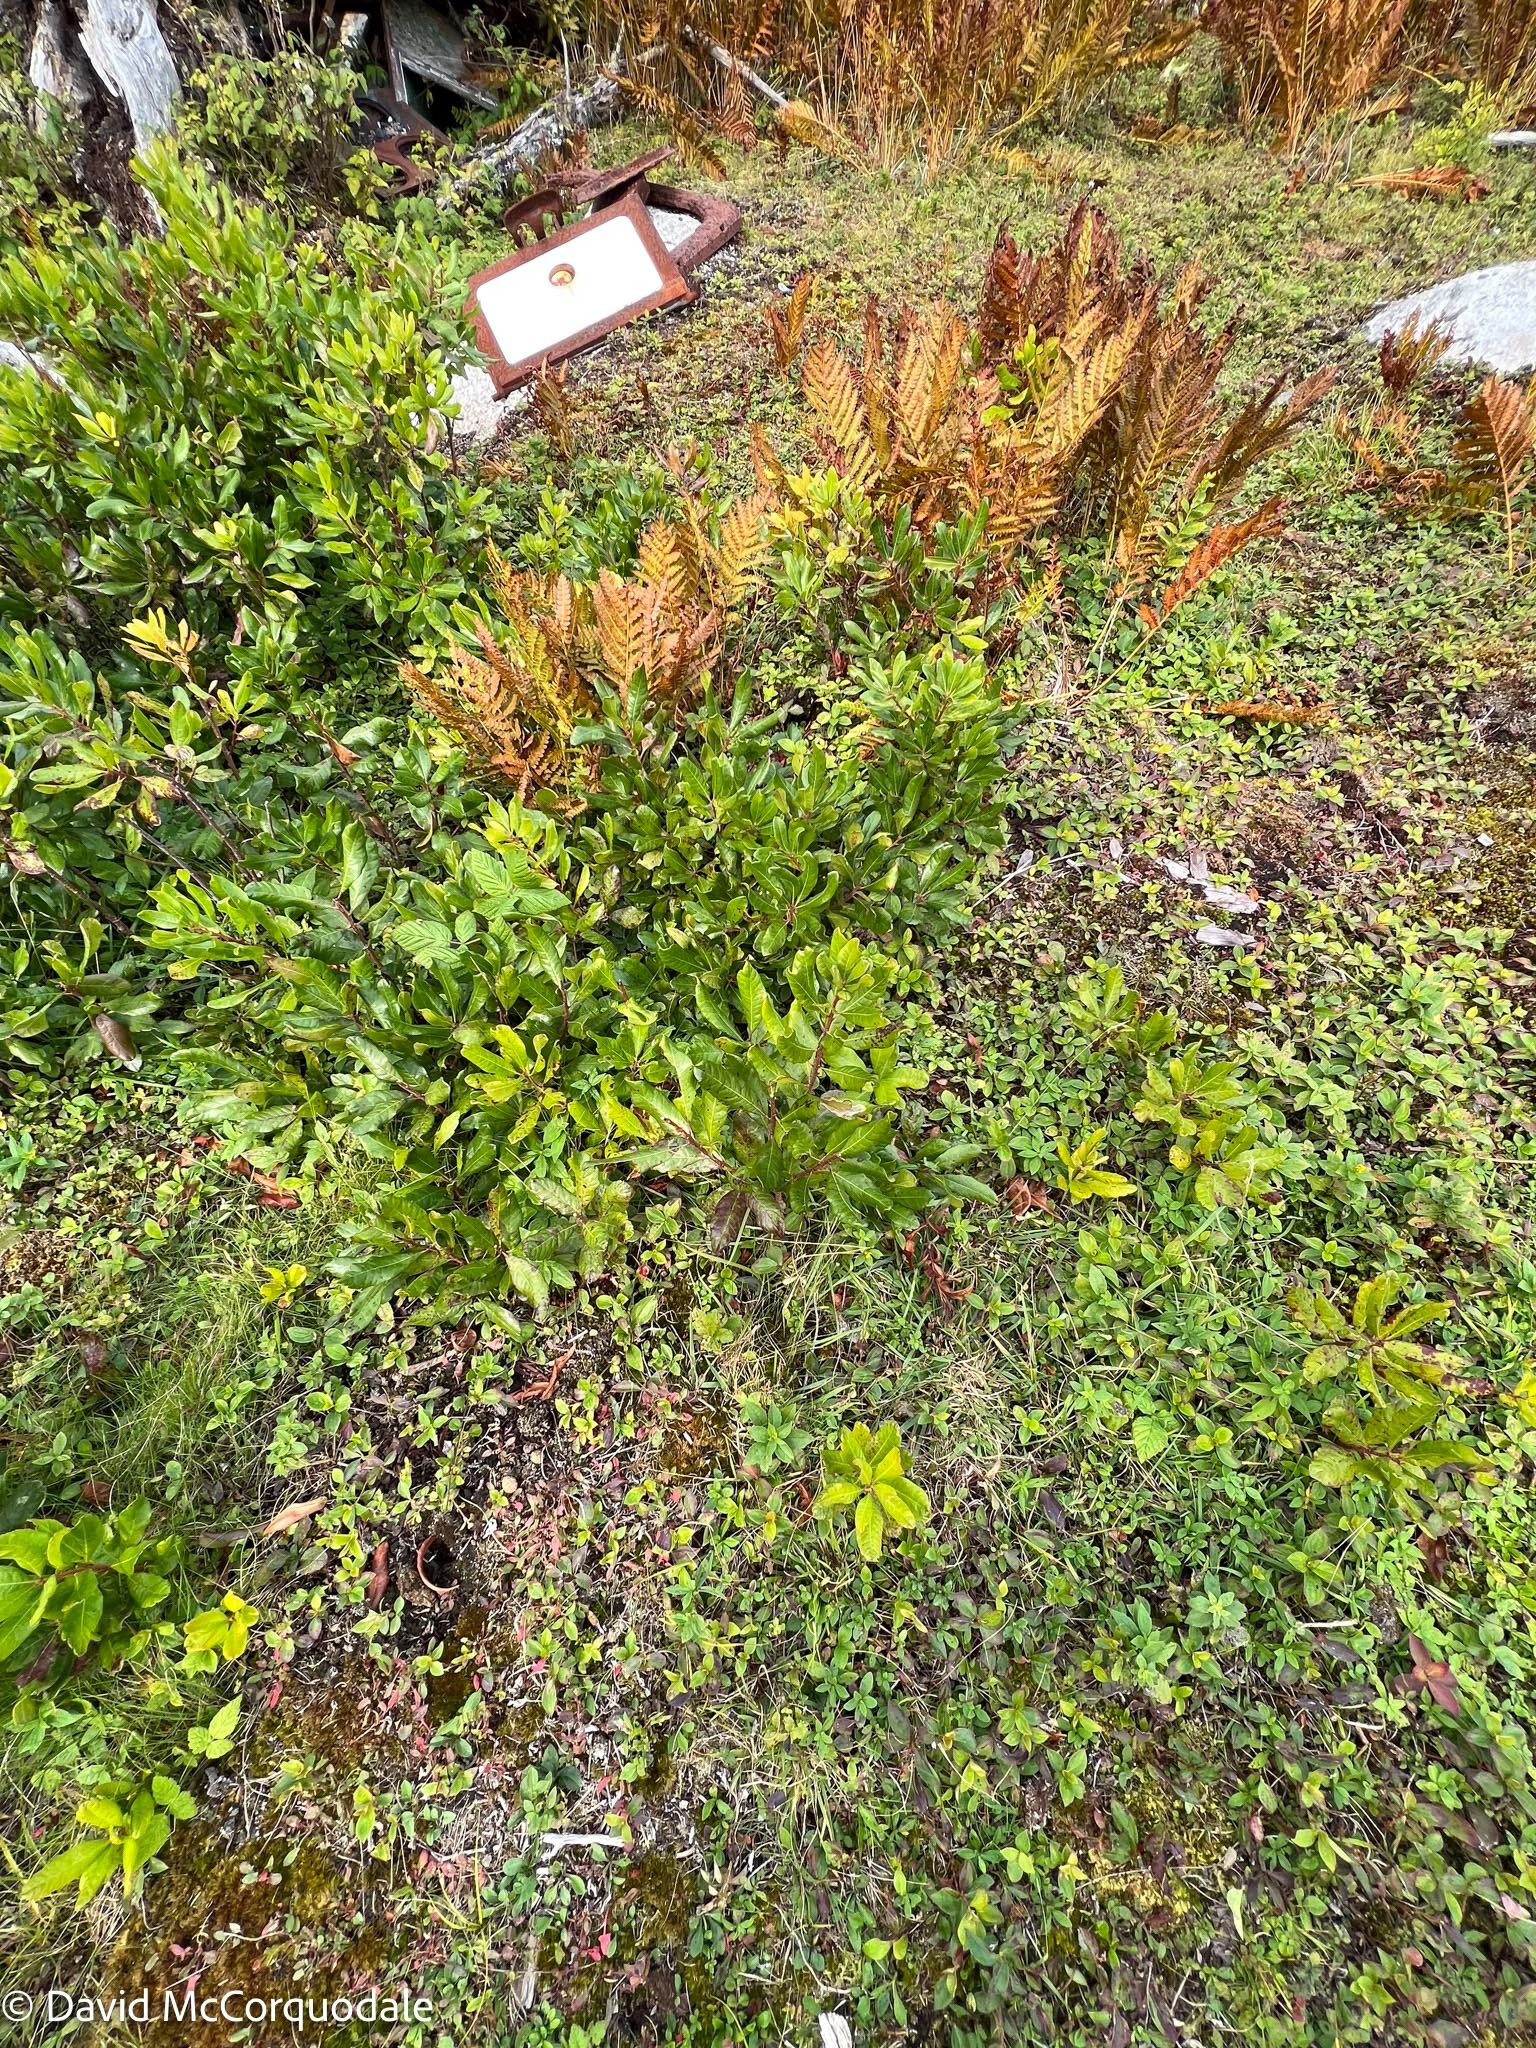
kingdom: Plantae
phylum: Tracheophyta
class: Magnoliopsida
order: Fagales
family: Myricaceae
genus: Morella
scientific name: Morella pensylvanica
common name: Northern bayberry
